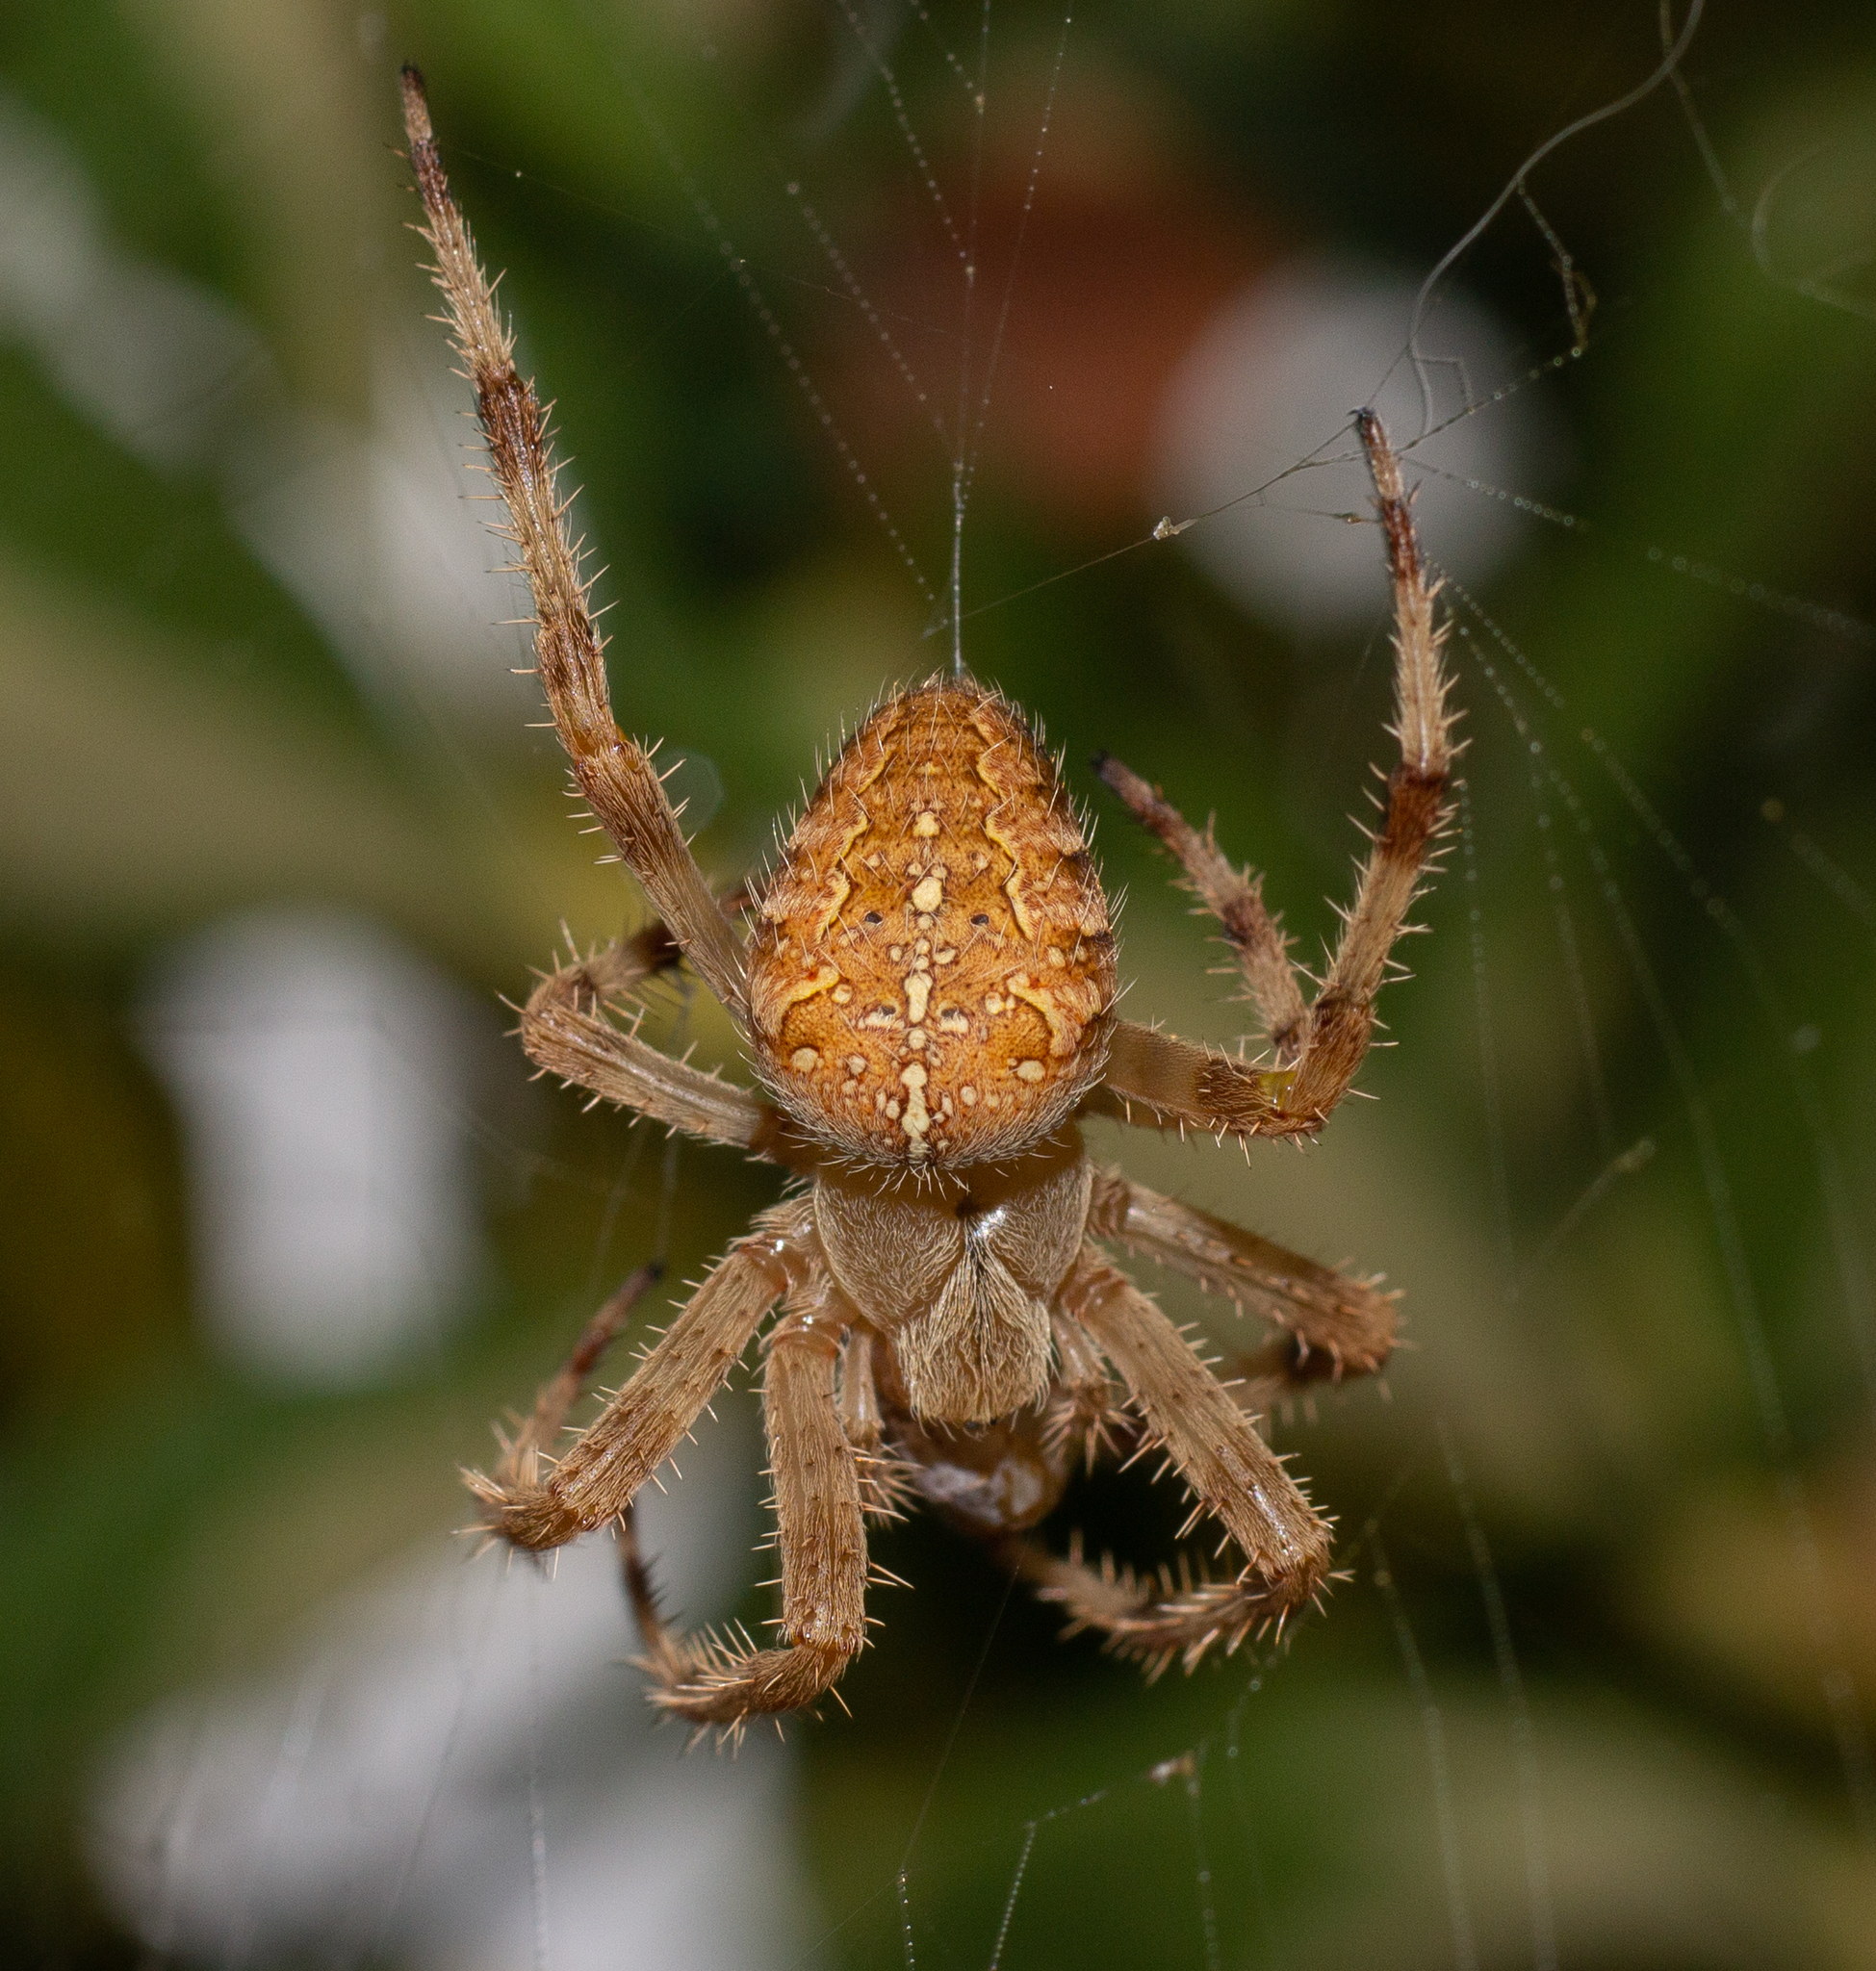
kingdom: Animalia
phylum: Arthropoda
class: Arachnida
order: Araneae
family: Araneidae
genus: Araneus
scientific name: Araneus diadematus
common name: Cross orbweaver
